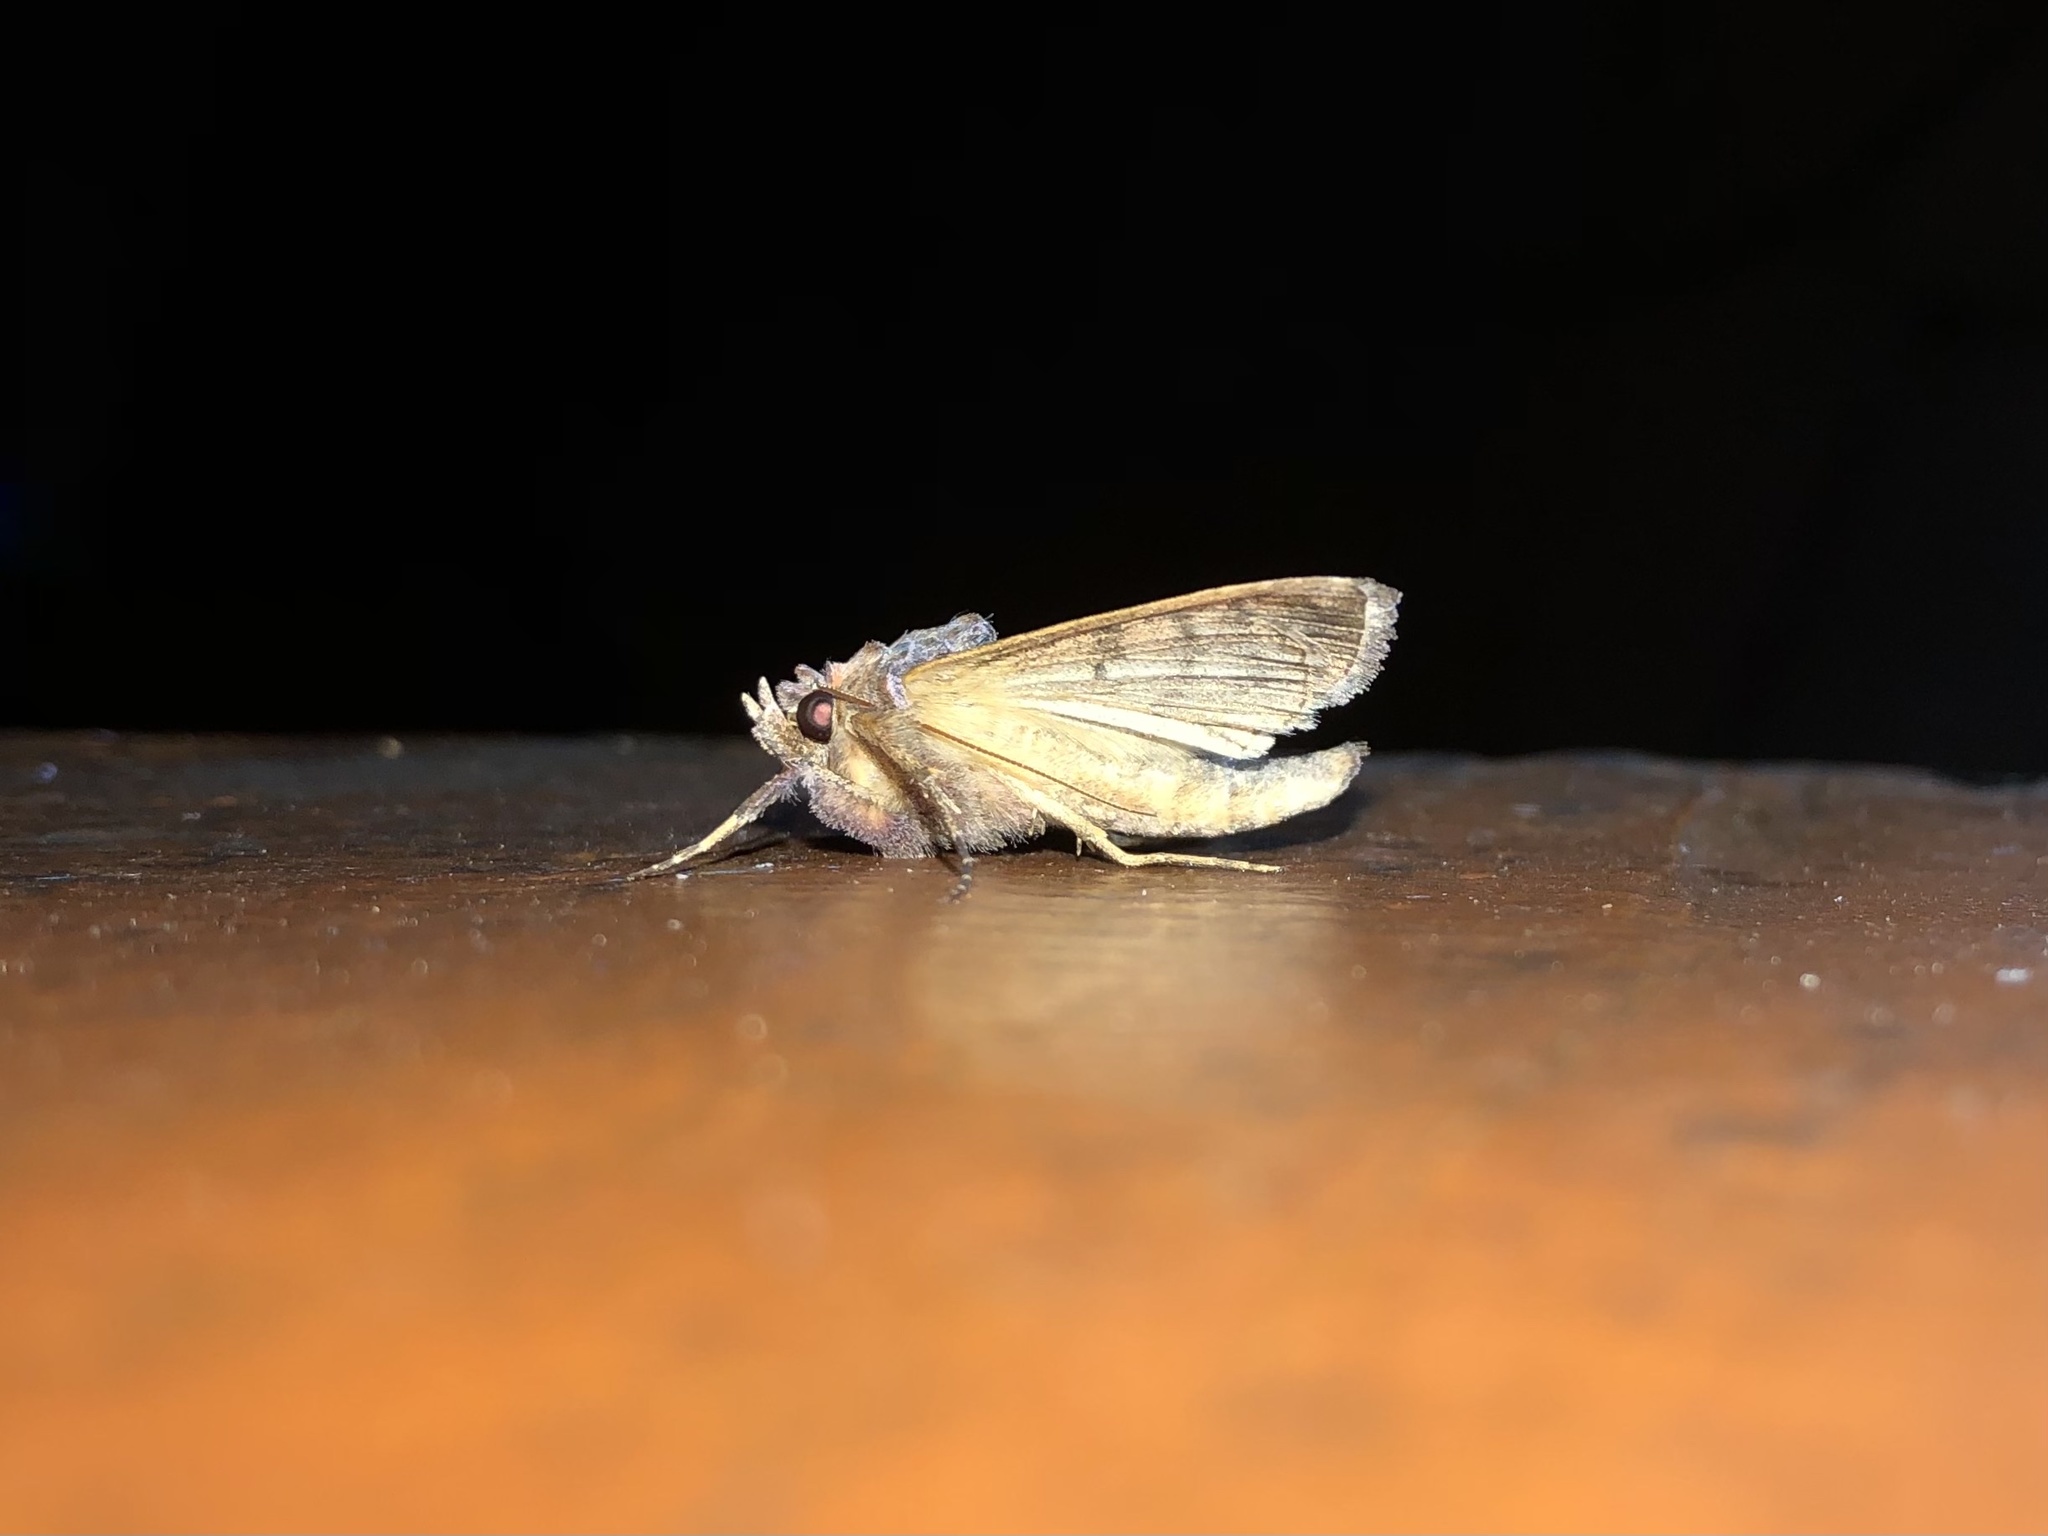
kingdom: Animalia
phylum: Arthropoda
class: Insecta
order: Lepidoptera
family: Noctuidae
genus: Autographa
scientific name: Autographa precationis
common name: Common looper moth
